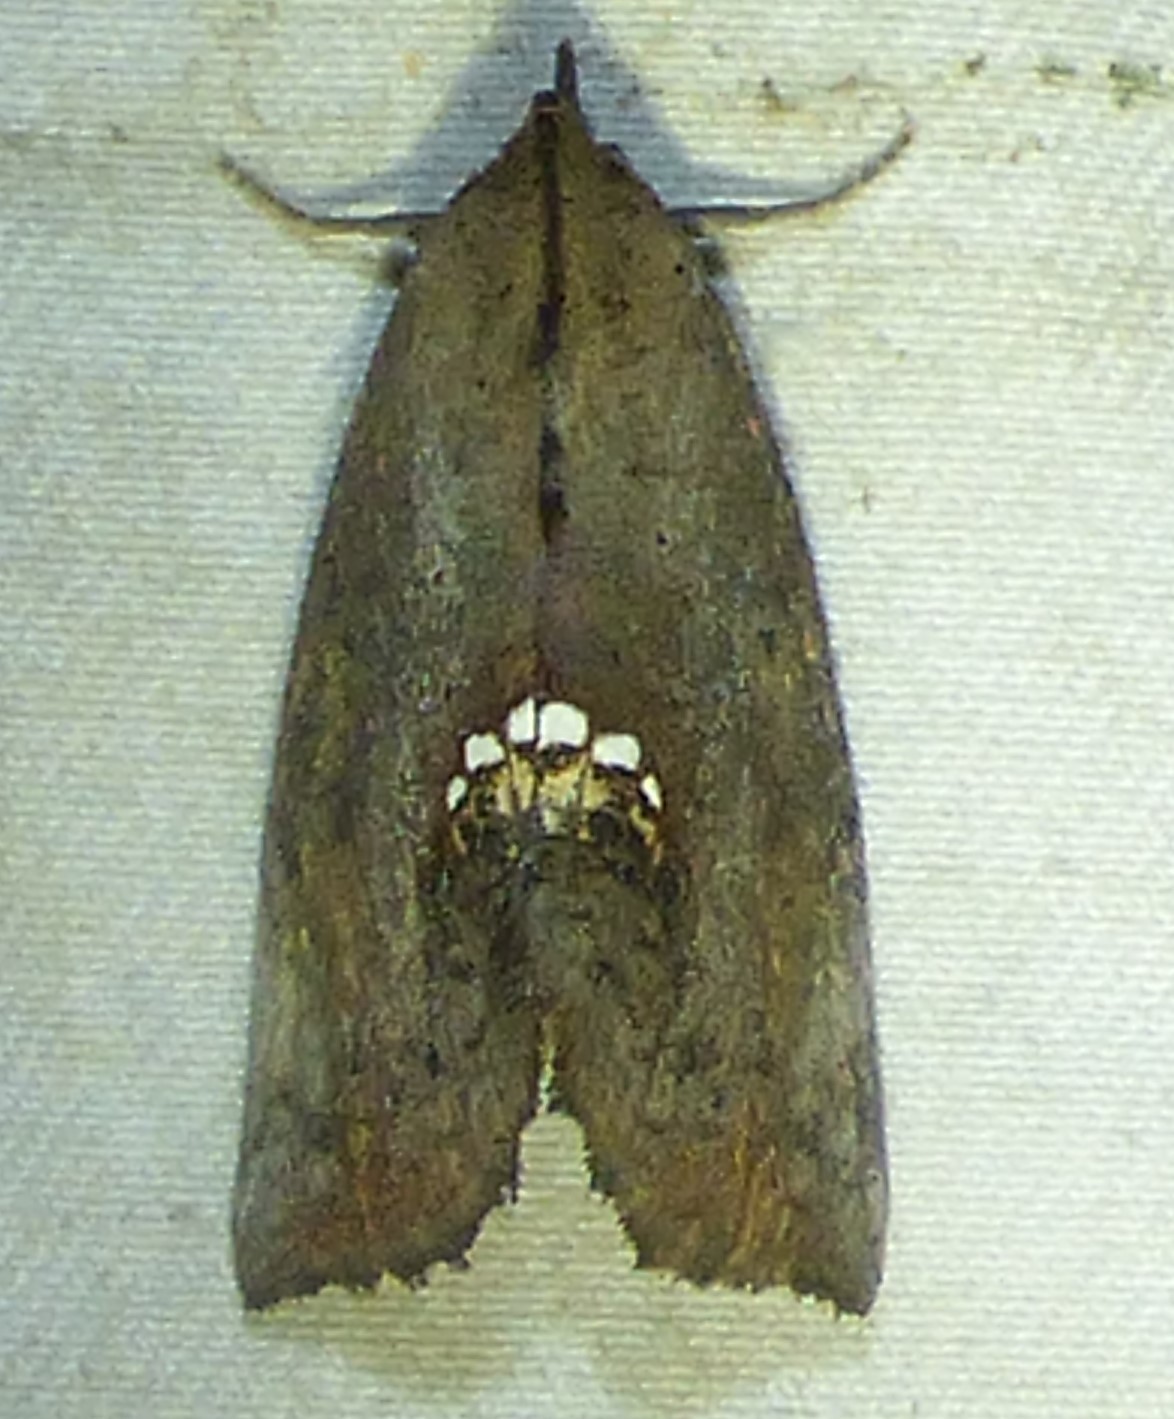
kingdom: Animalia
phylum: Arthropoda
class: Insecta
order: Lepidoptera
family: Erebidae
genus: Hypsoropha
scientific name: Hypsoropha hormos
